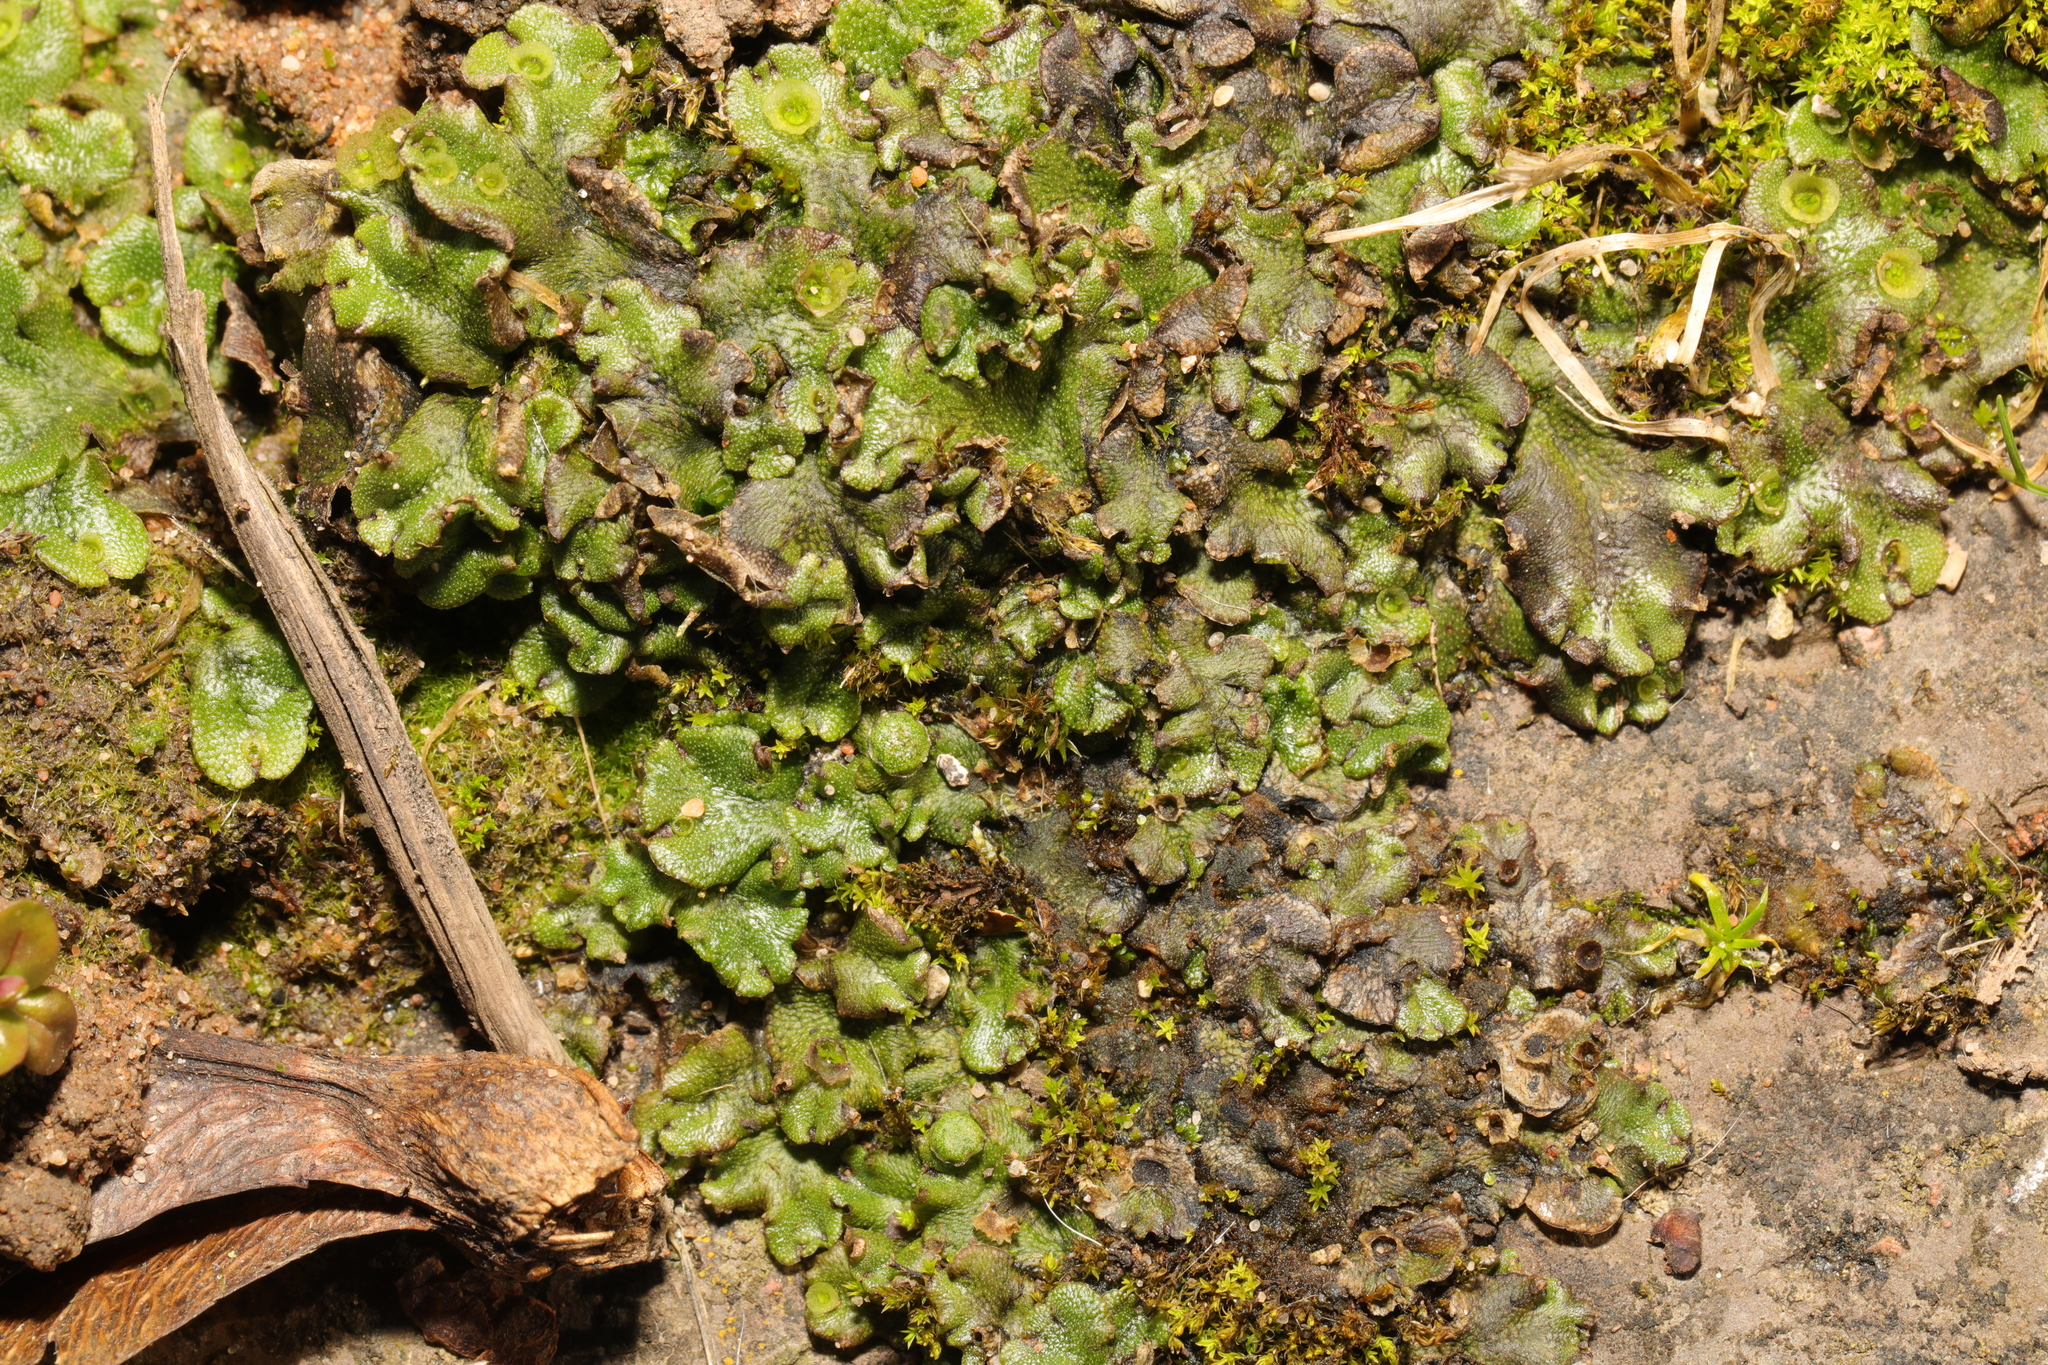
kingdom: Plantae
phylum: Marchantiophyta
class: Marchantiopsida
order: Marchantiales
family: Marchantiaceae
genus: Marchantia
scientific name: Marchantia polymorpha
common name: Common liverwort
